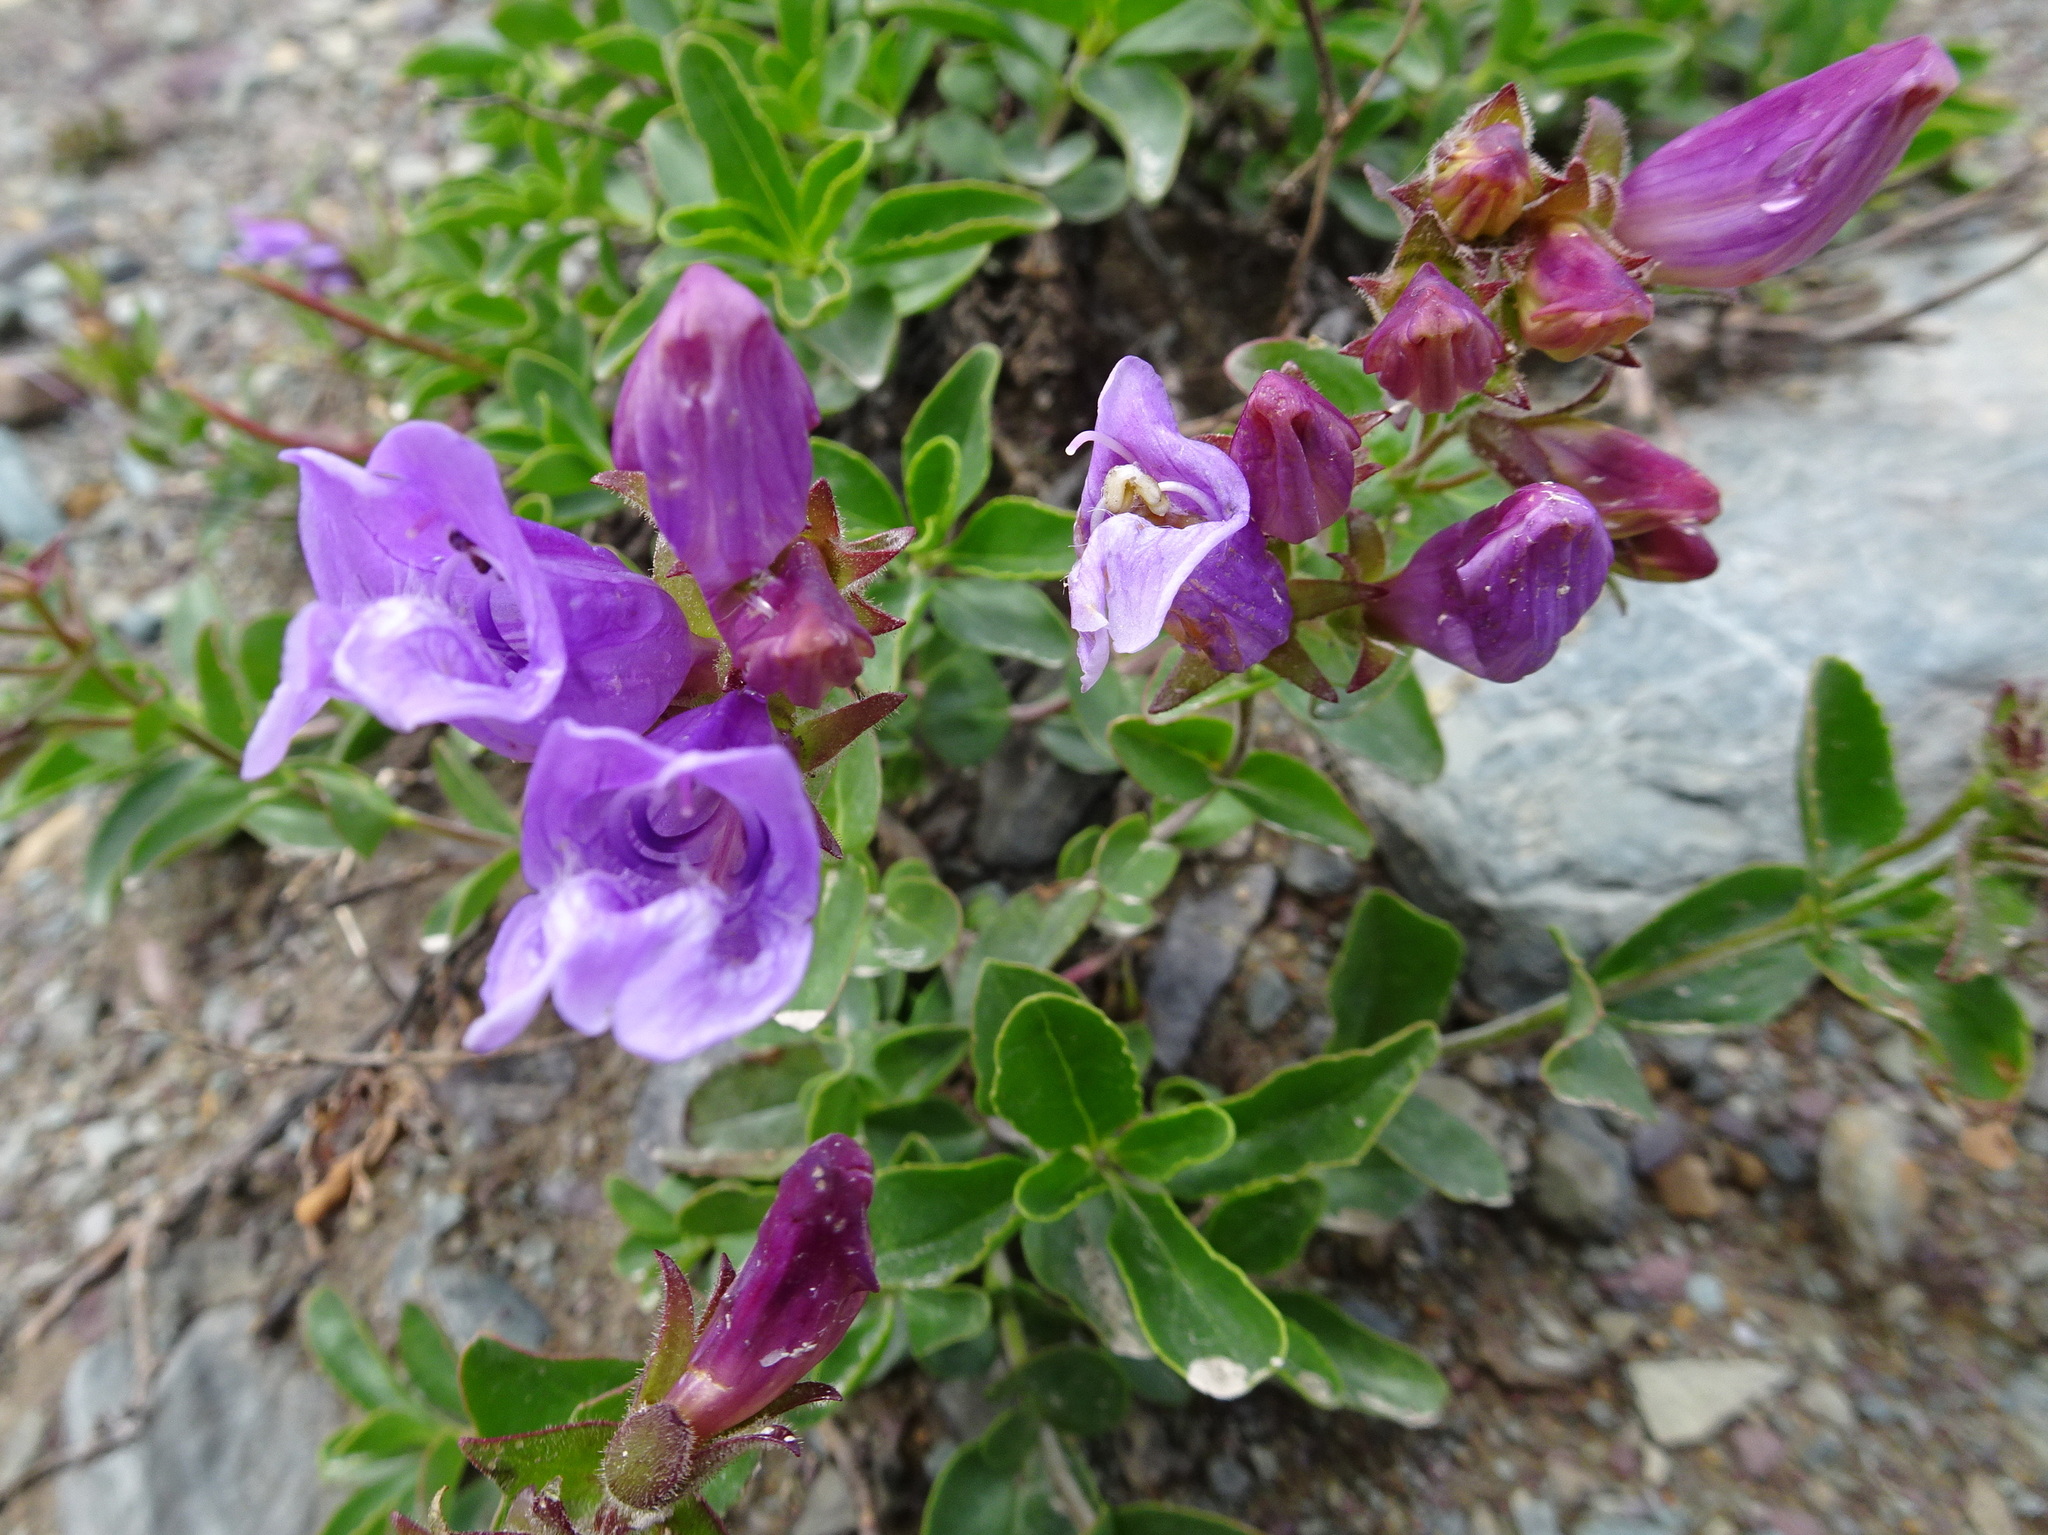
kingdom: Plantae
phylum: Tracheophyta
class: Magnoliopsida
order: Lamiales
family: Plantaginaceae
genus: Penstemon
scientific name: Penstemon ellipticus
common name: Alpine beardtongue
